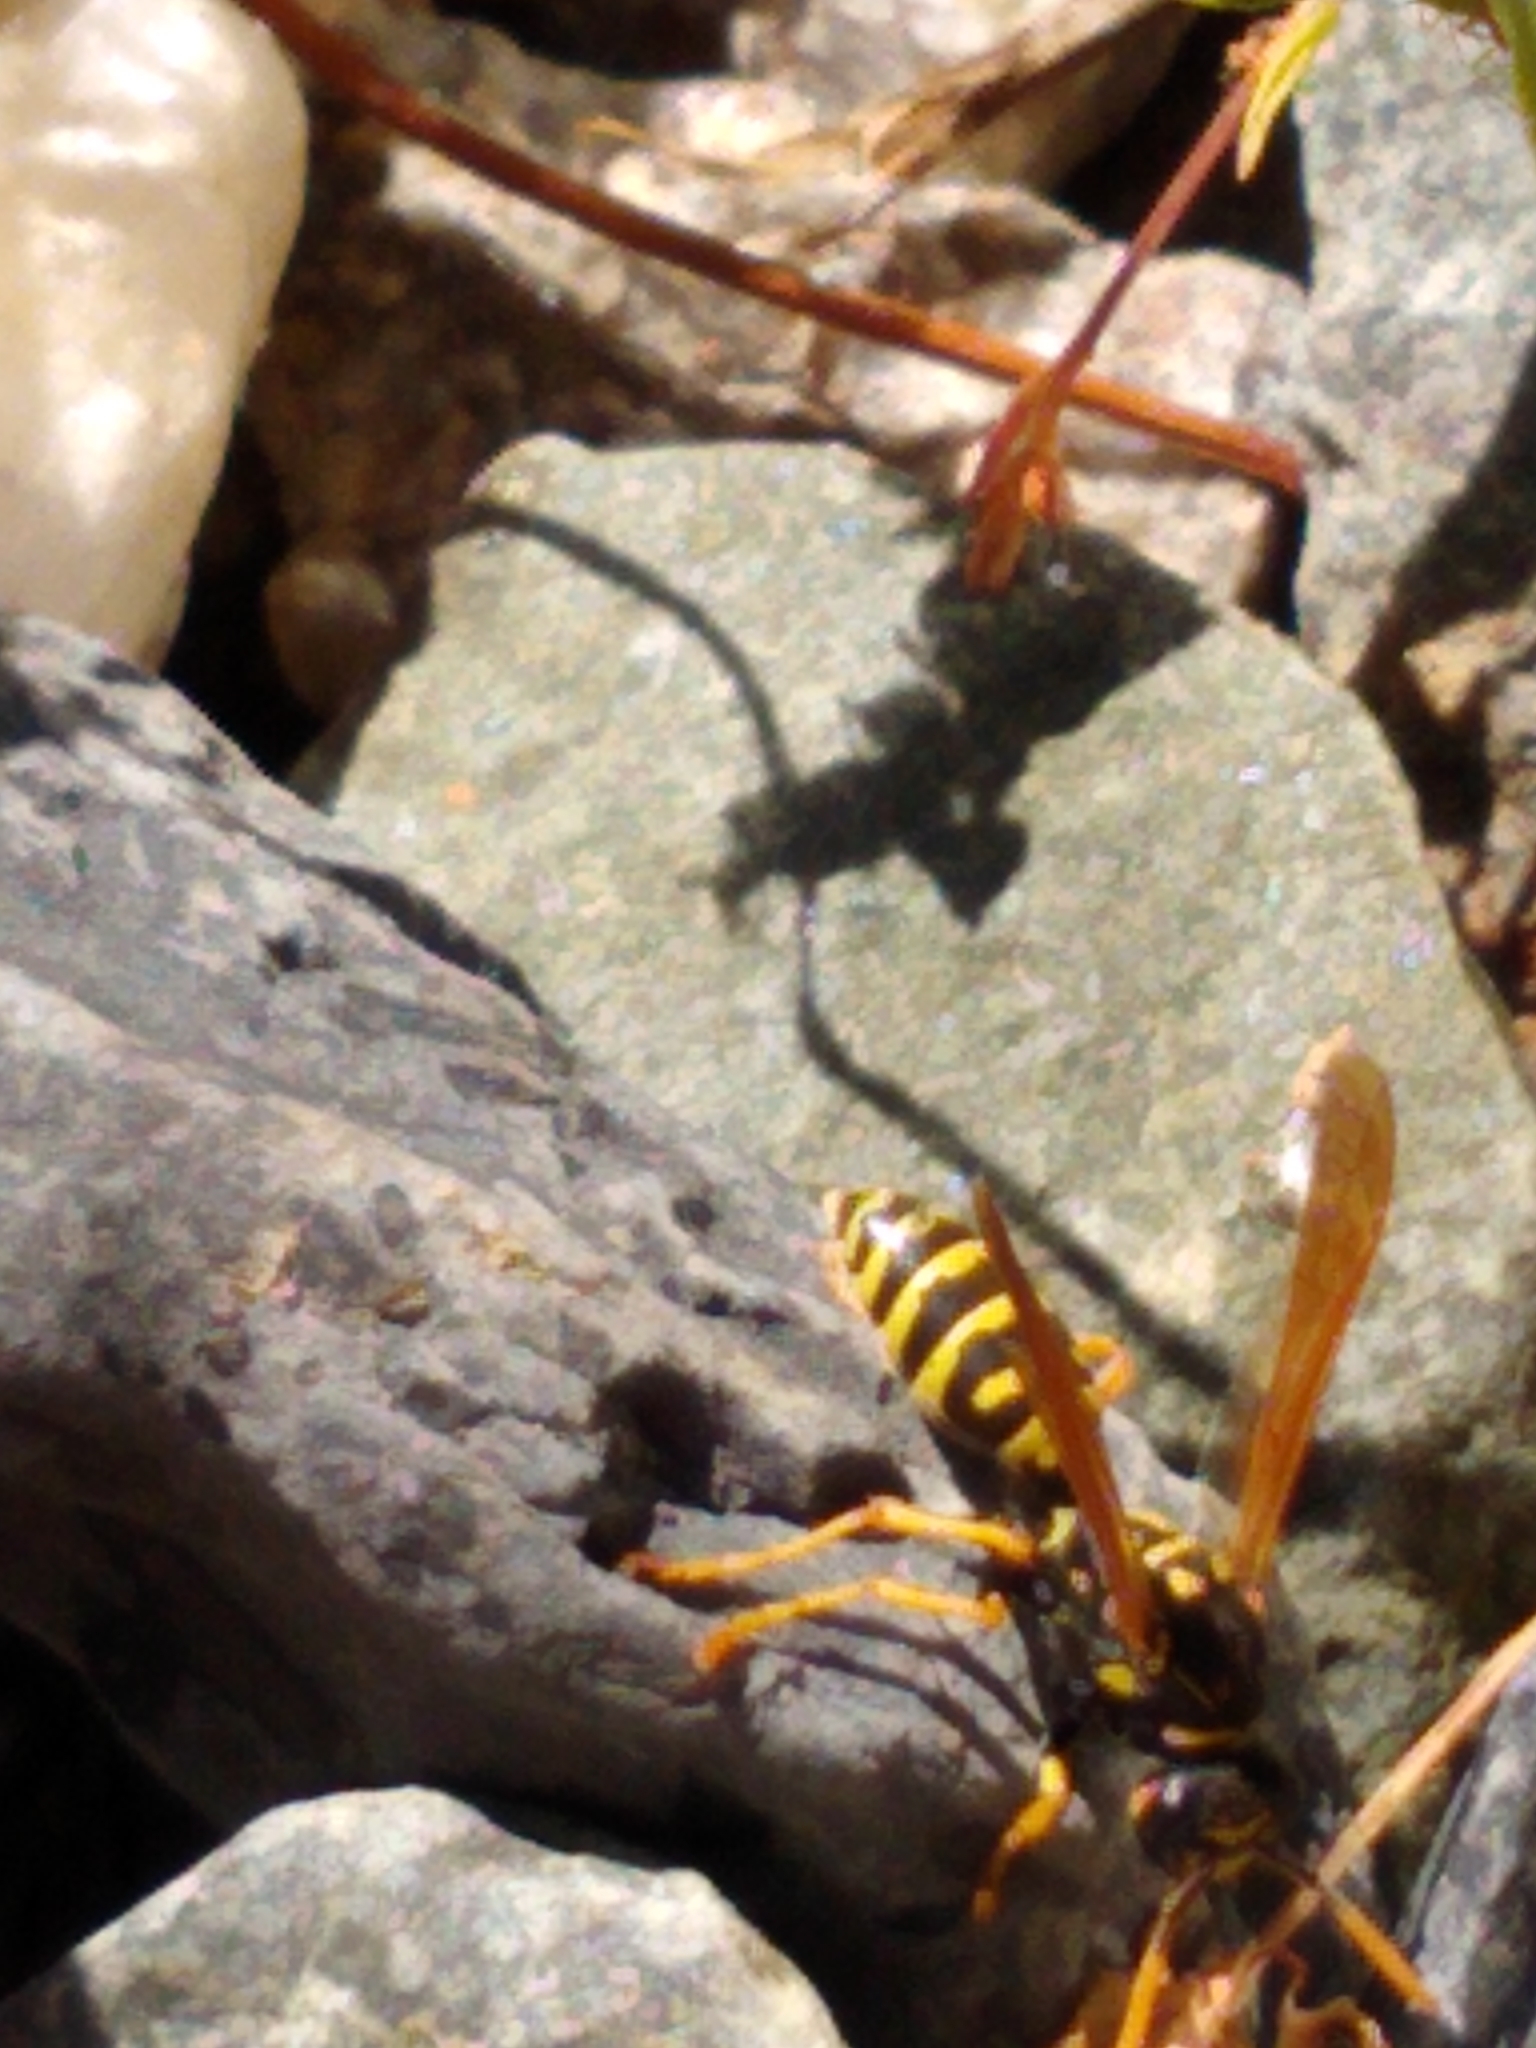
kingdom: Animalia
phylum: Arthropoda
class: Insecta
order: Hymenoptera
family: Eumenidae
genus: Polistes
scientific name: Polistes dominula
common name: Paper wasp
